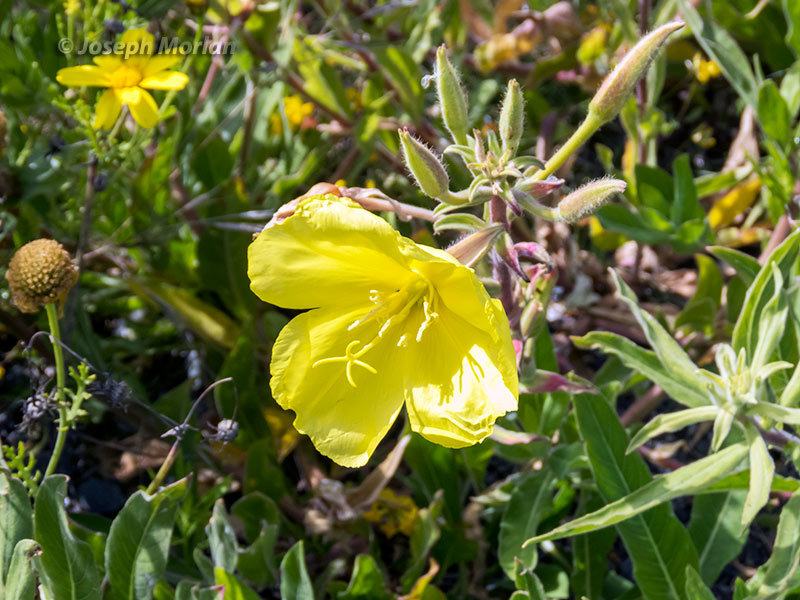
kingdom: Plantae
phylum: Tracheophyta
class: Magnoliopsida
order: Myrtales
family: Onagraceae
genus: Oenothera
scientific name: Oenothera elata
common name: Hooker's evening-primrose
